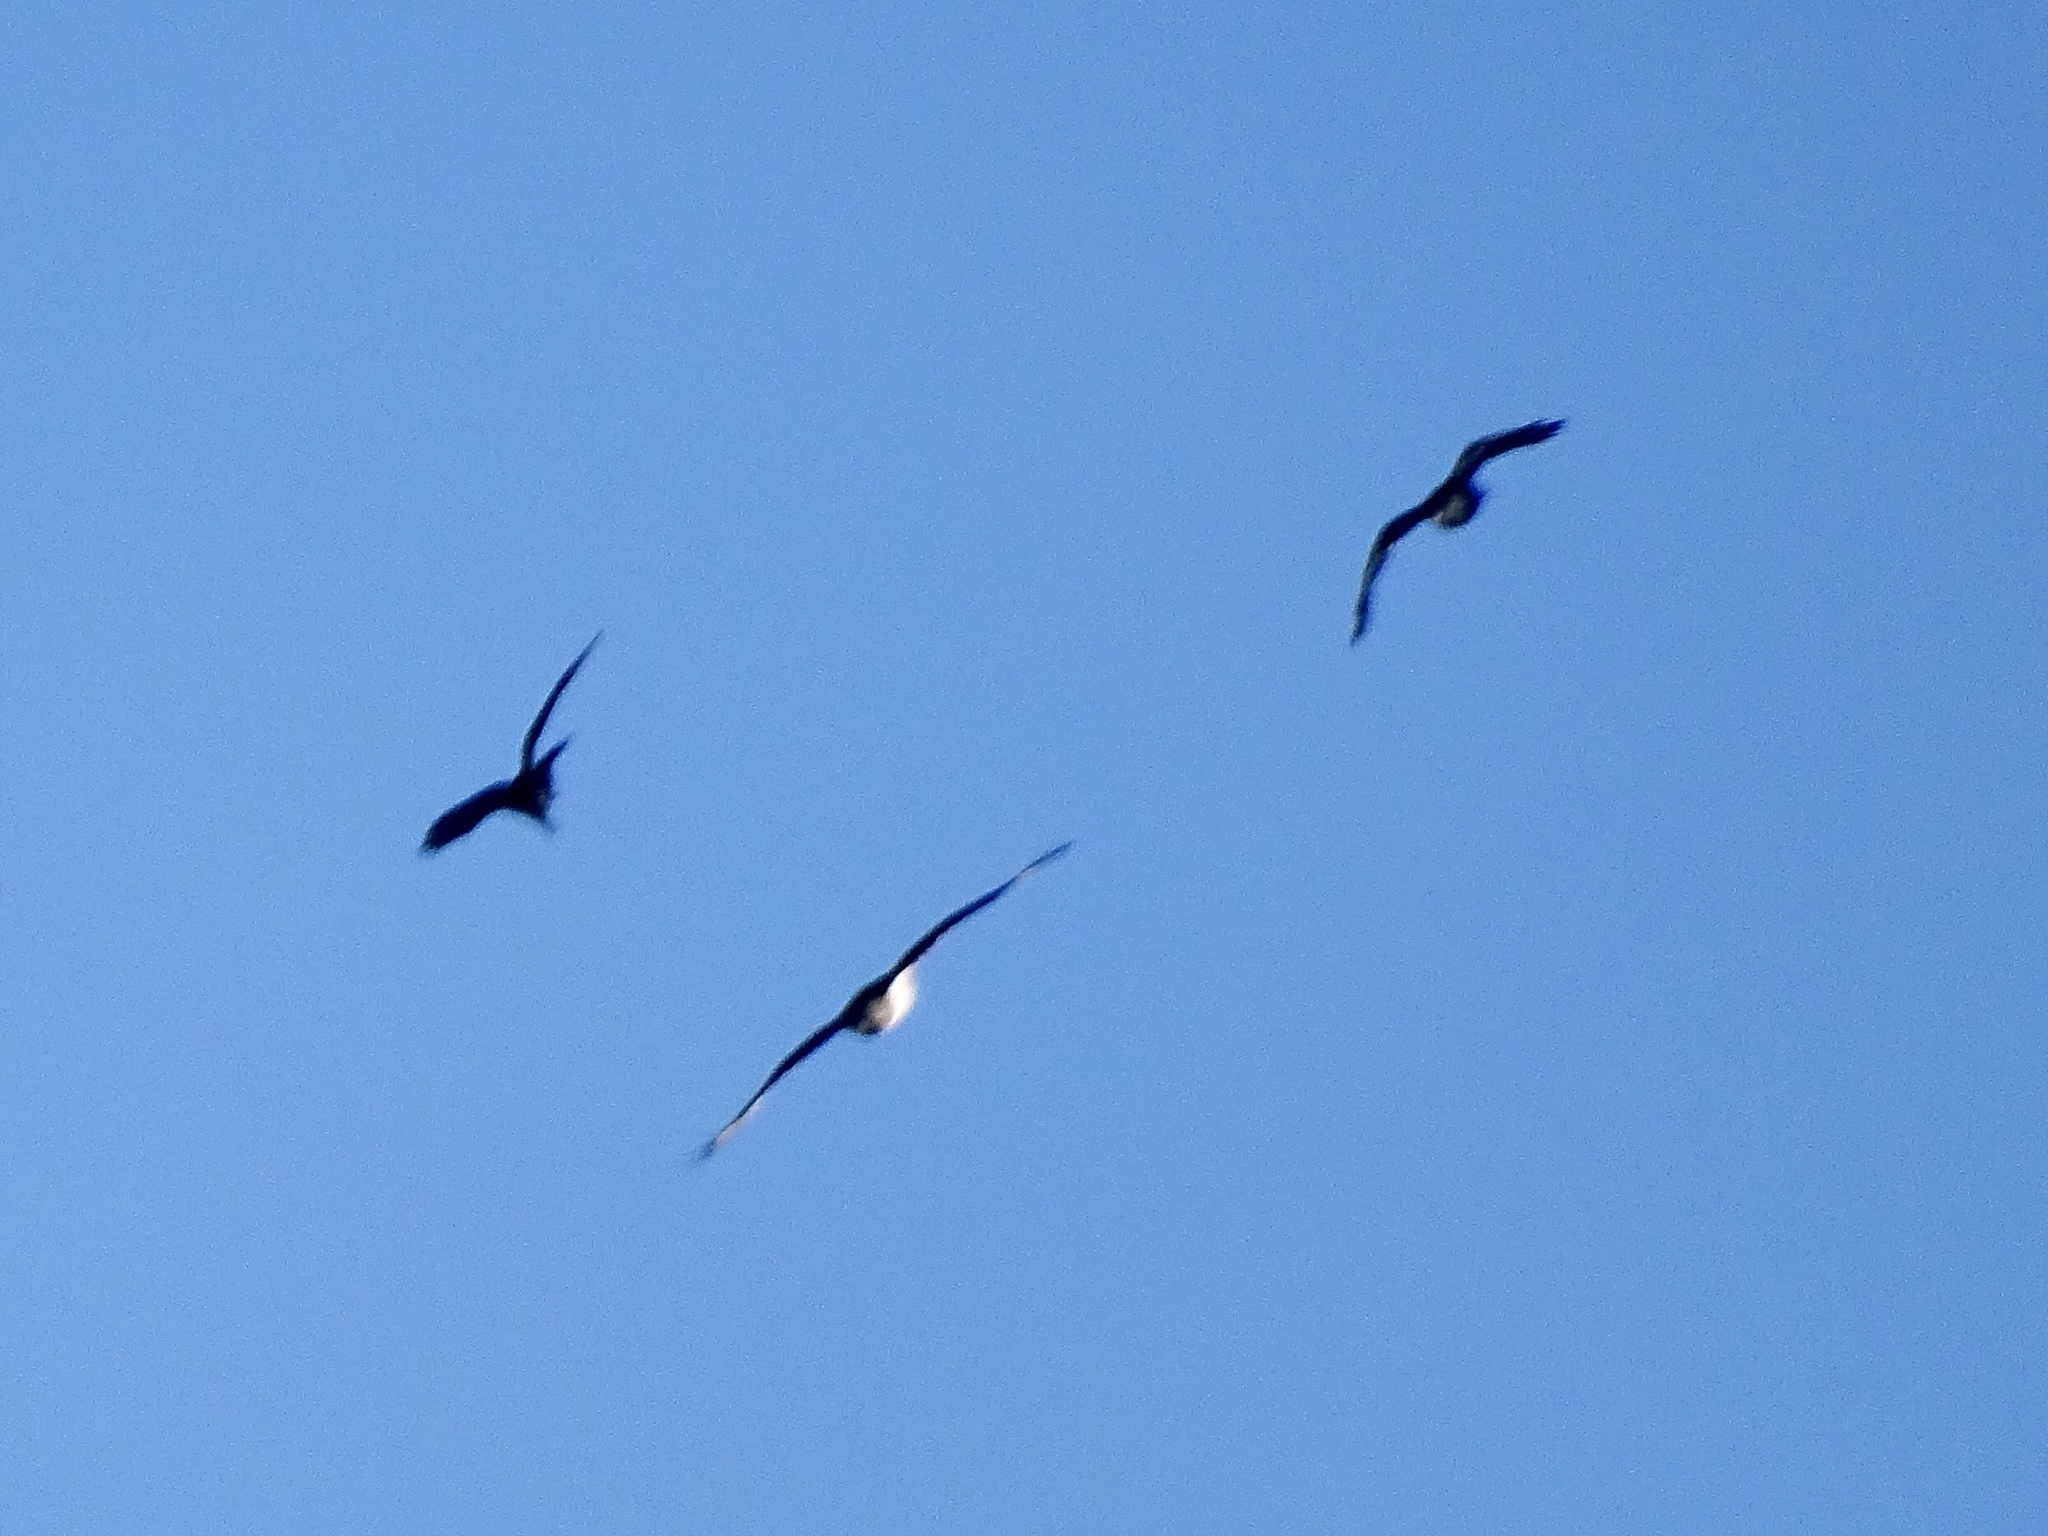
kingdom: Animalia
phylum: Chordata
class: Aves
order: Accipitriformes
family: Accipitridae
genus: Buteo
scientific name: Buteo jamaicensis
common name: Red-tailed hawk
